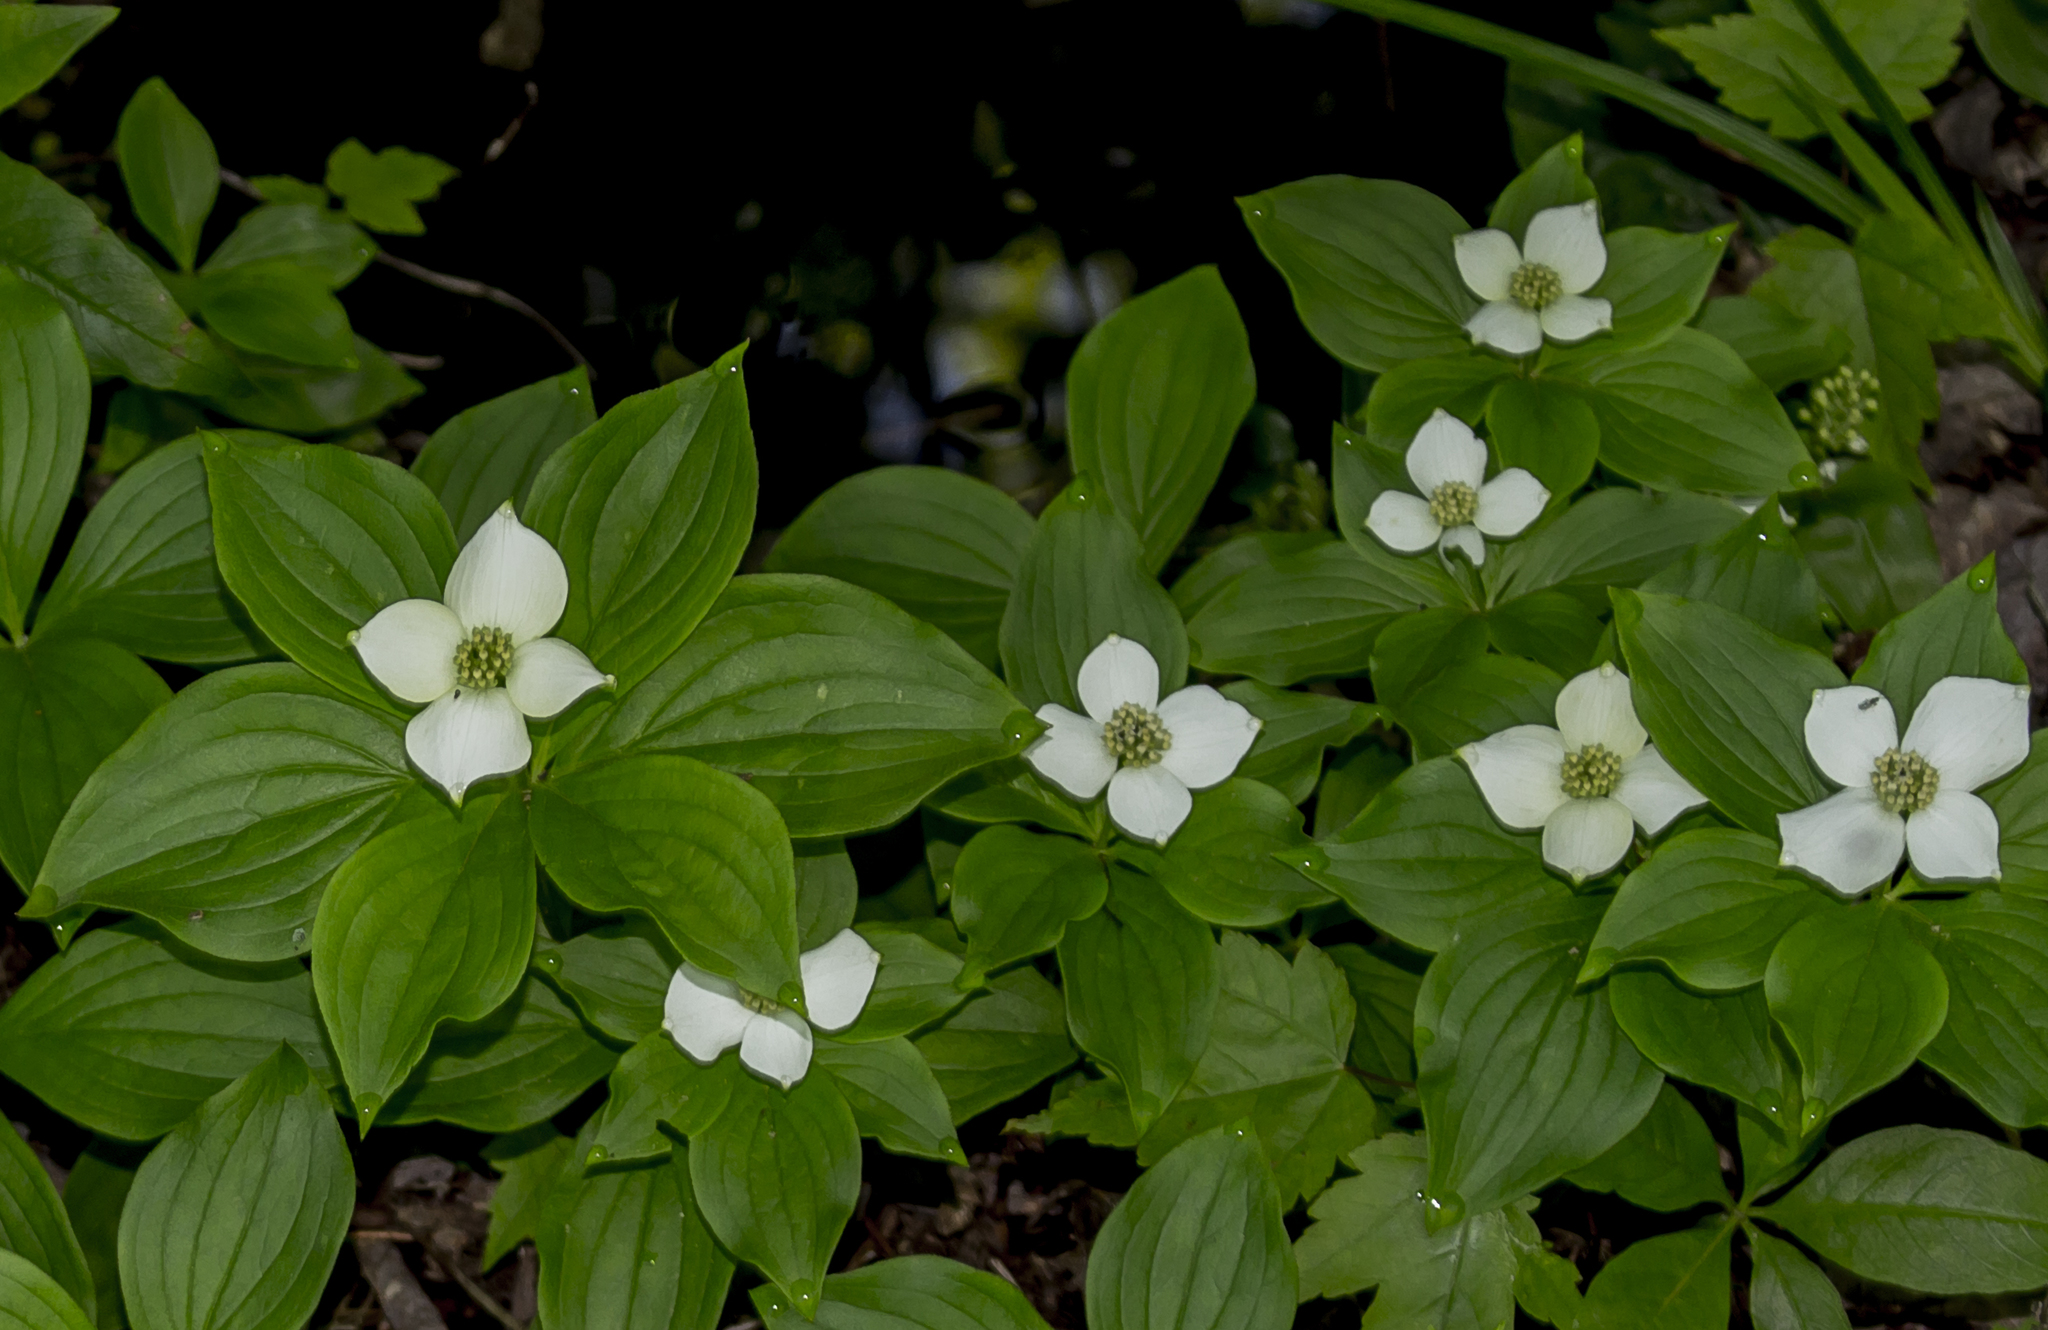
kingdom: Plantae
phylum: Tracheophyta
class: Magnoliopsida
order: Cornales
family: Cornaceae
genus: Cornus
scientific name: Cornus canadensis
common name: Creeping dogwood
